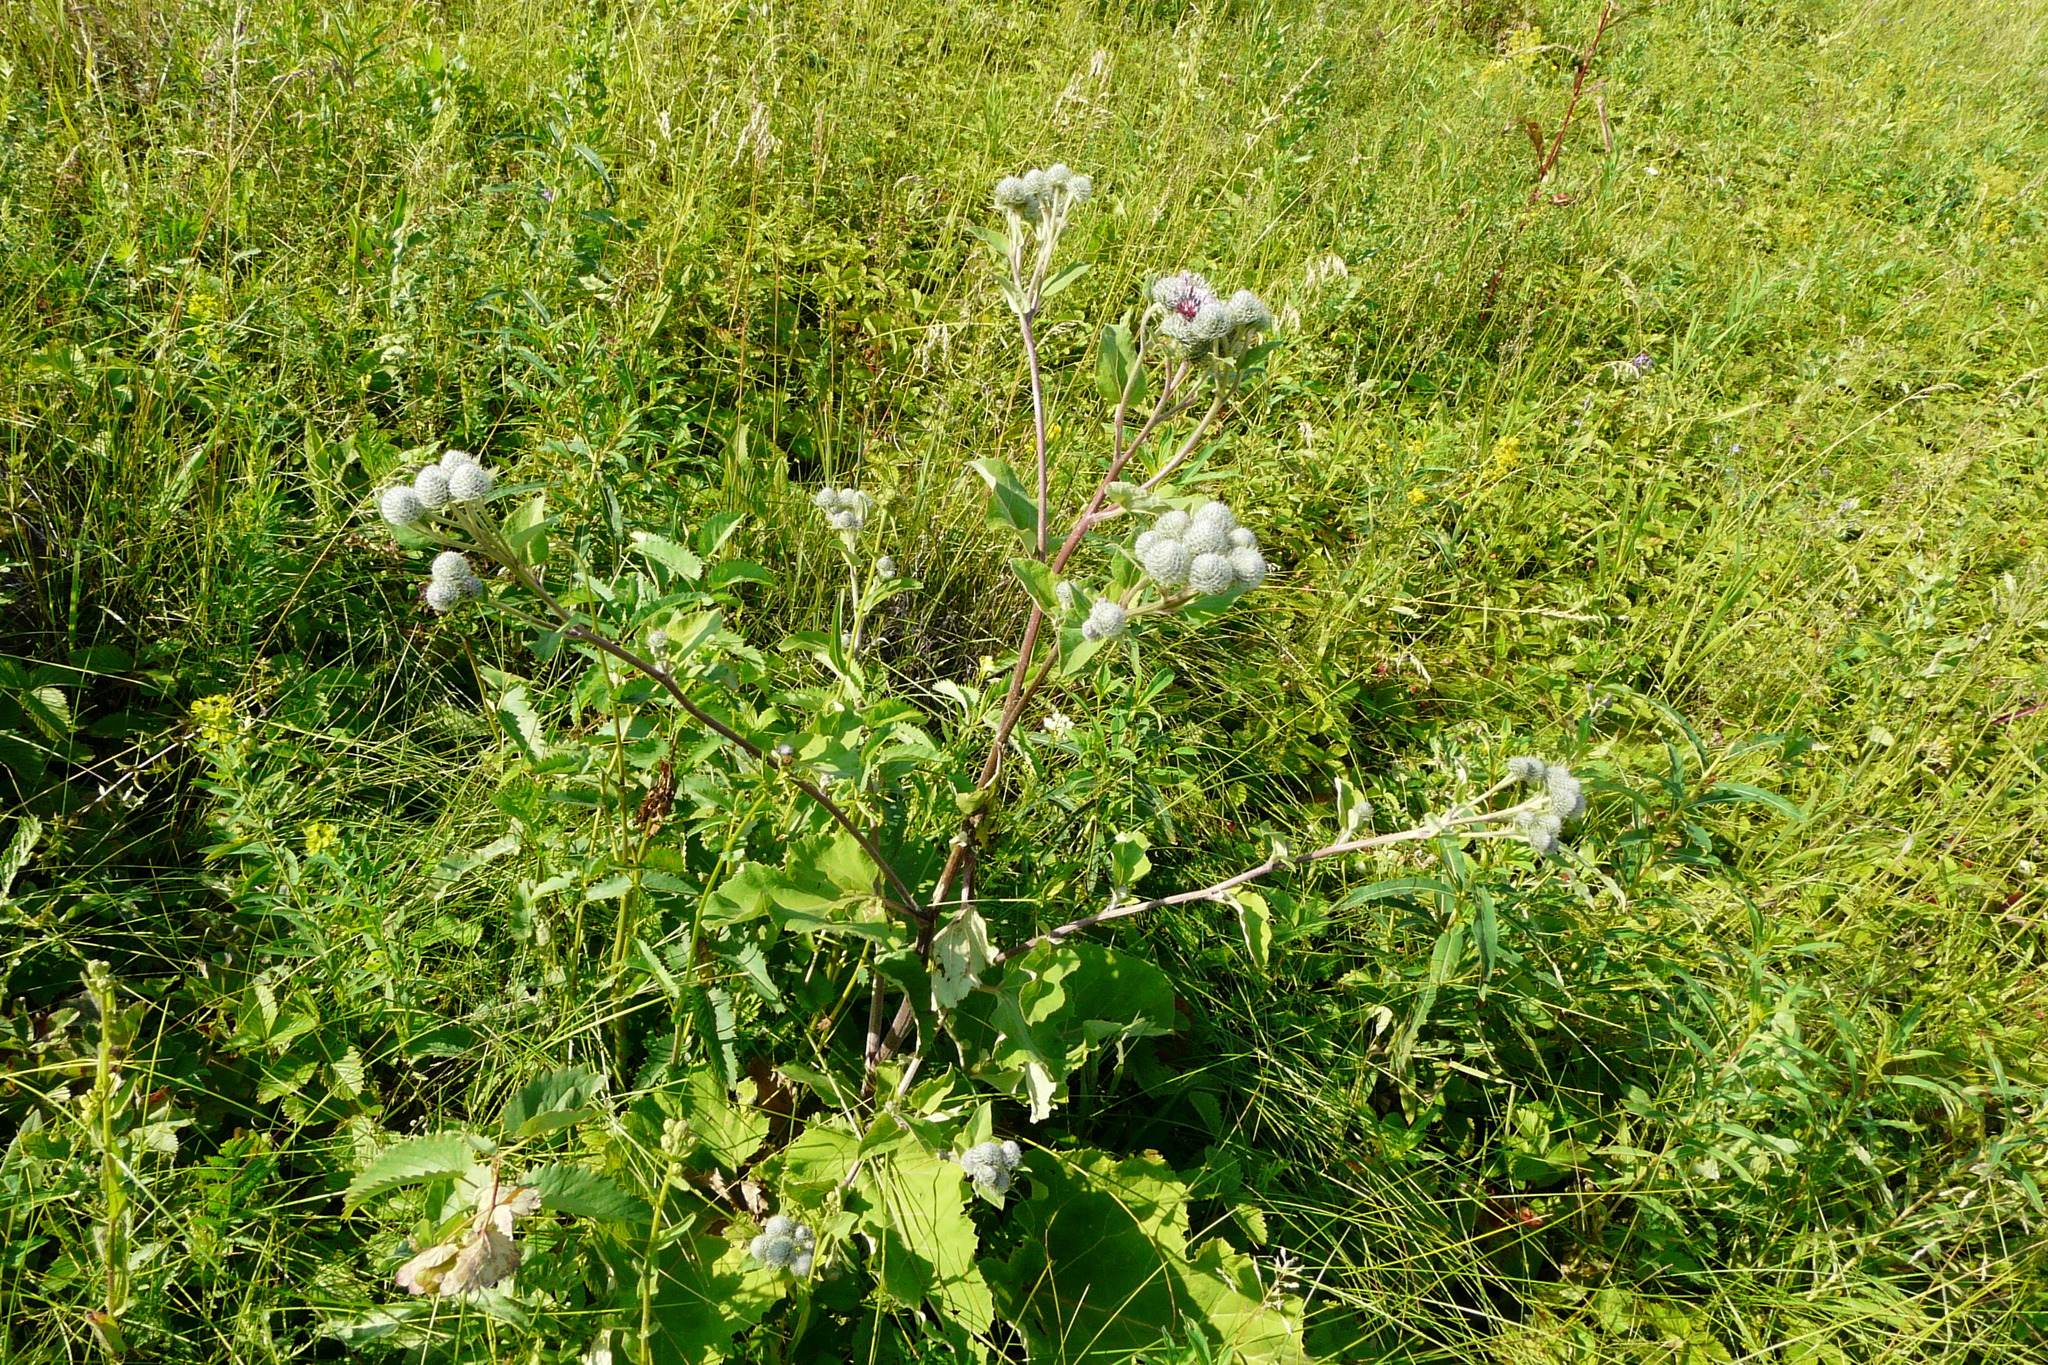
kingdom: Plantae
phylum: Tracheophyta
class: Magnoliopsida
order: Asterales
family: Asteraceae
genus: Arctium
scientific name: Arctium tomentosum
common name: Woolly burdock
